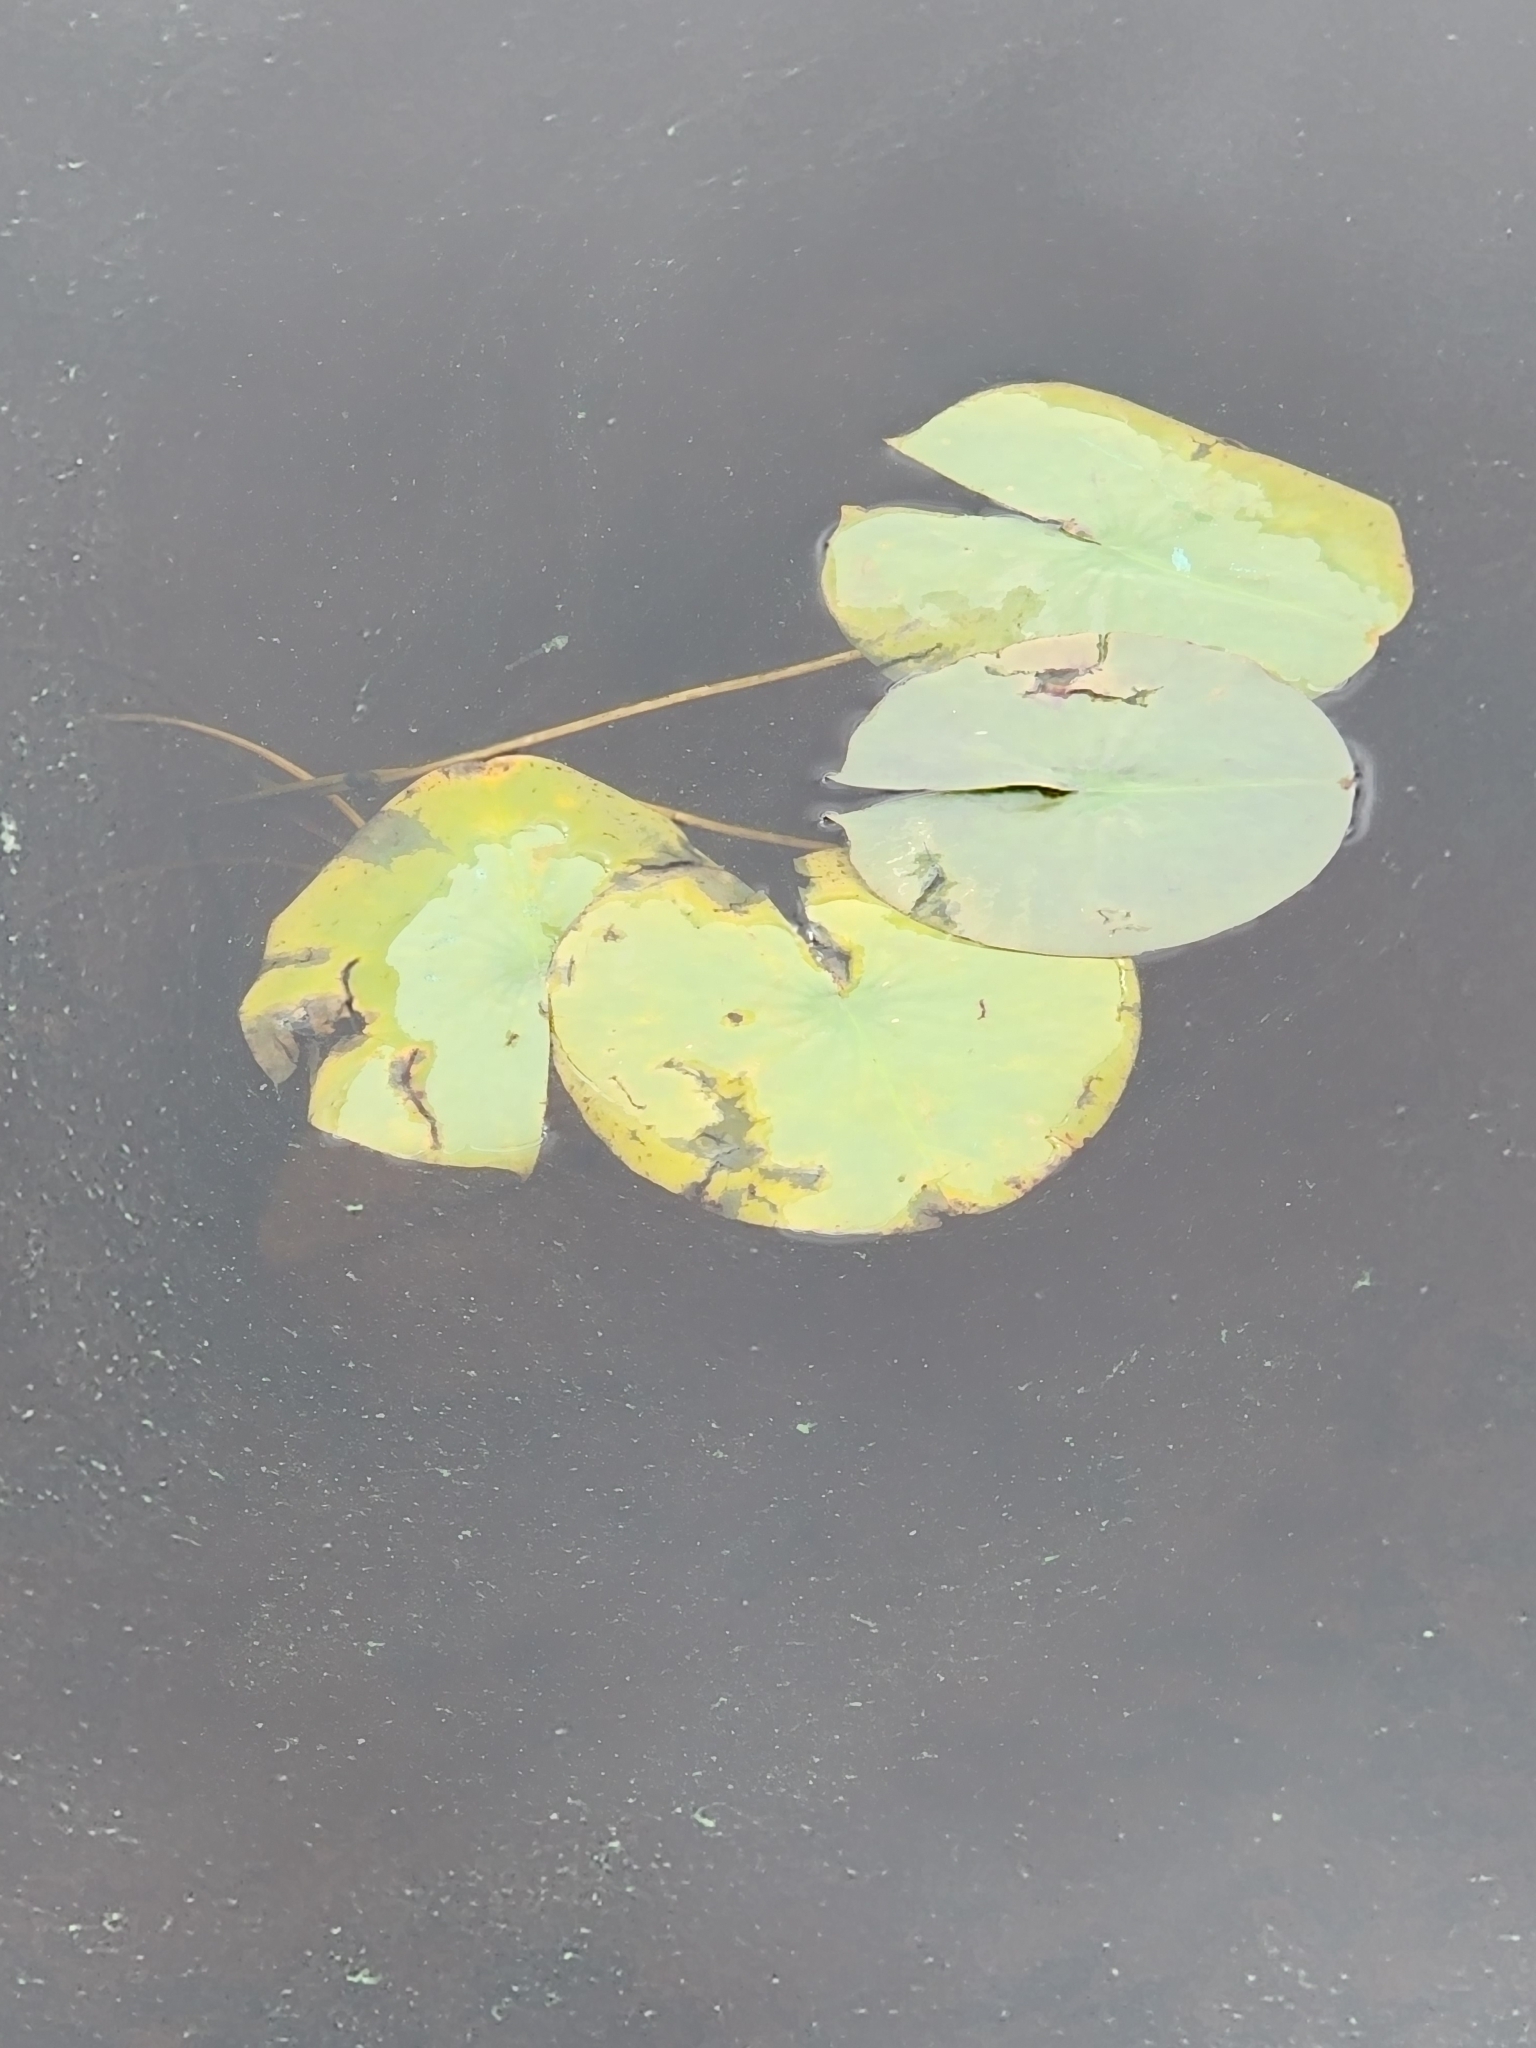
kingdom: Plantae
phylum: Tracheophyta
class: Magnoliopsida
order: Nymphaeales
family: Nymphaeaceae
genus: Nymphaea
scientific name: Nymphaea odorata
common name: Fragrant water-lily
